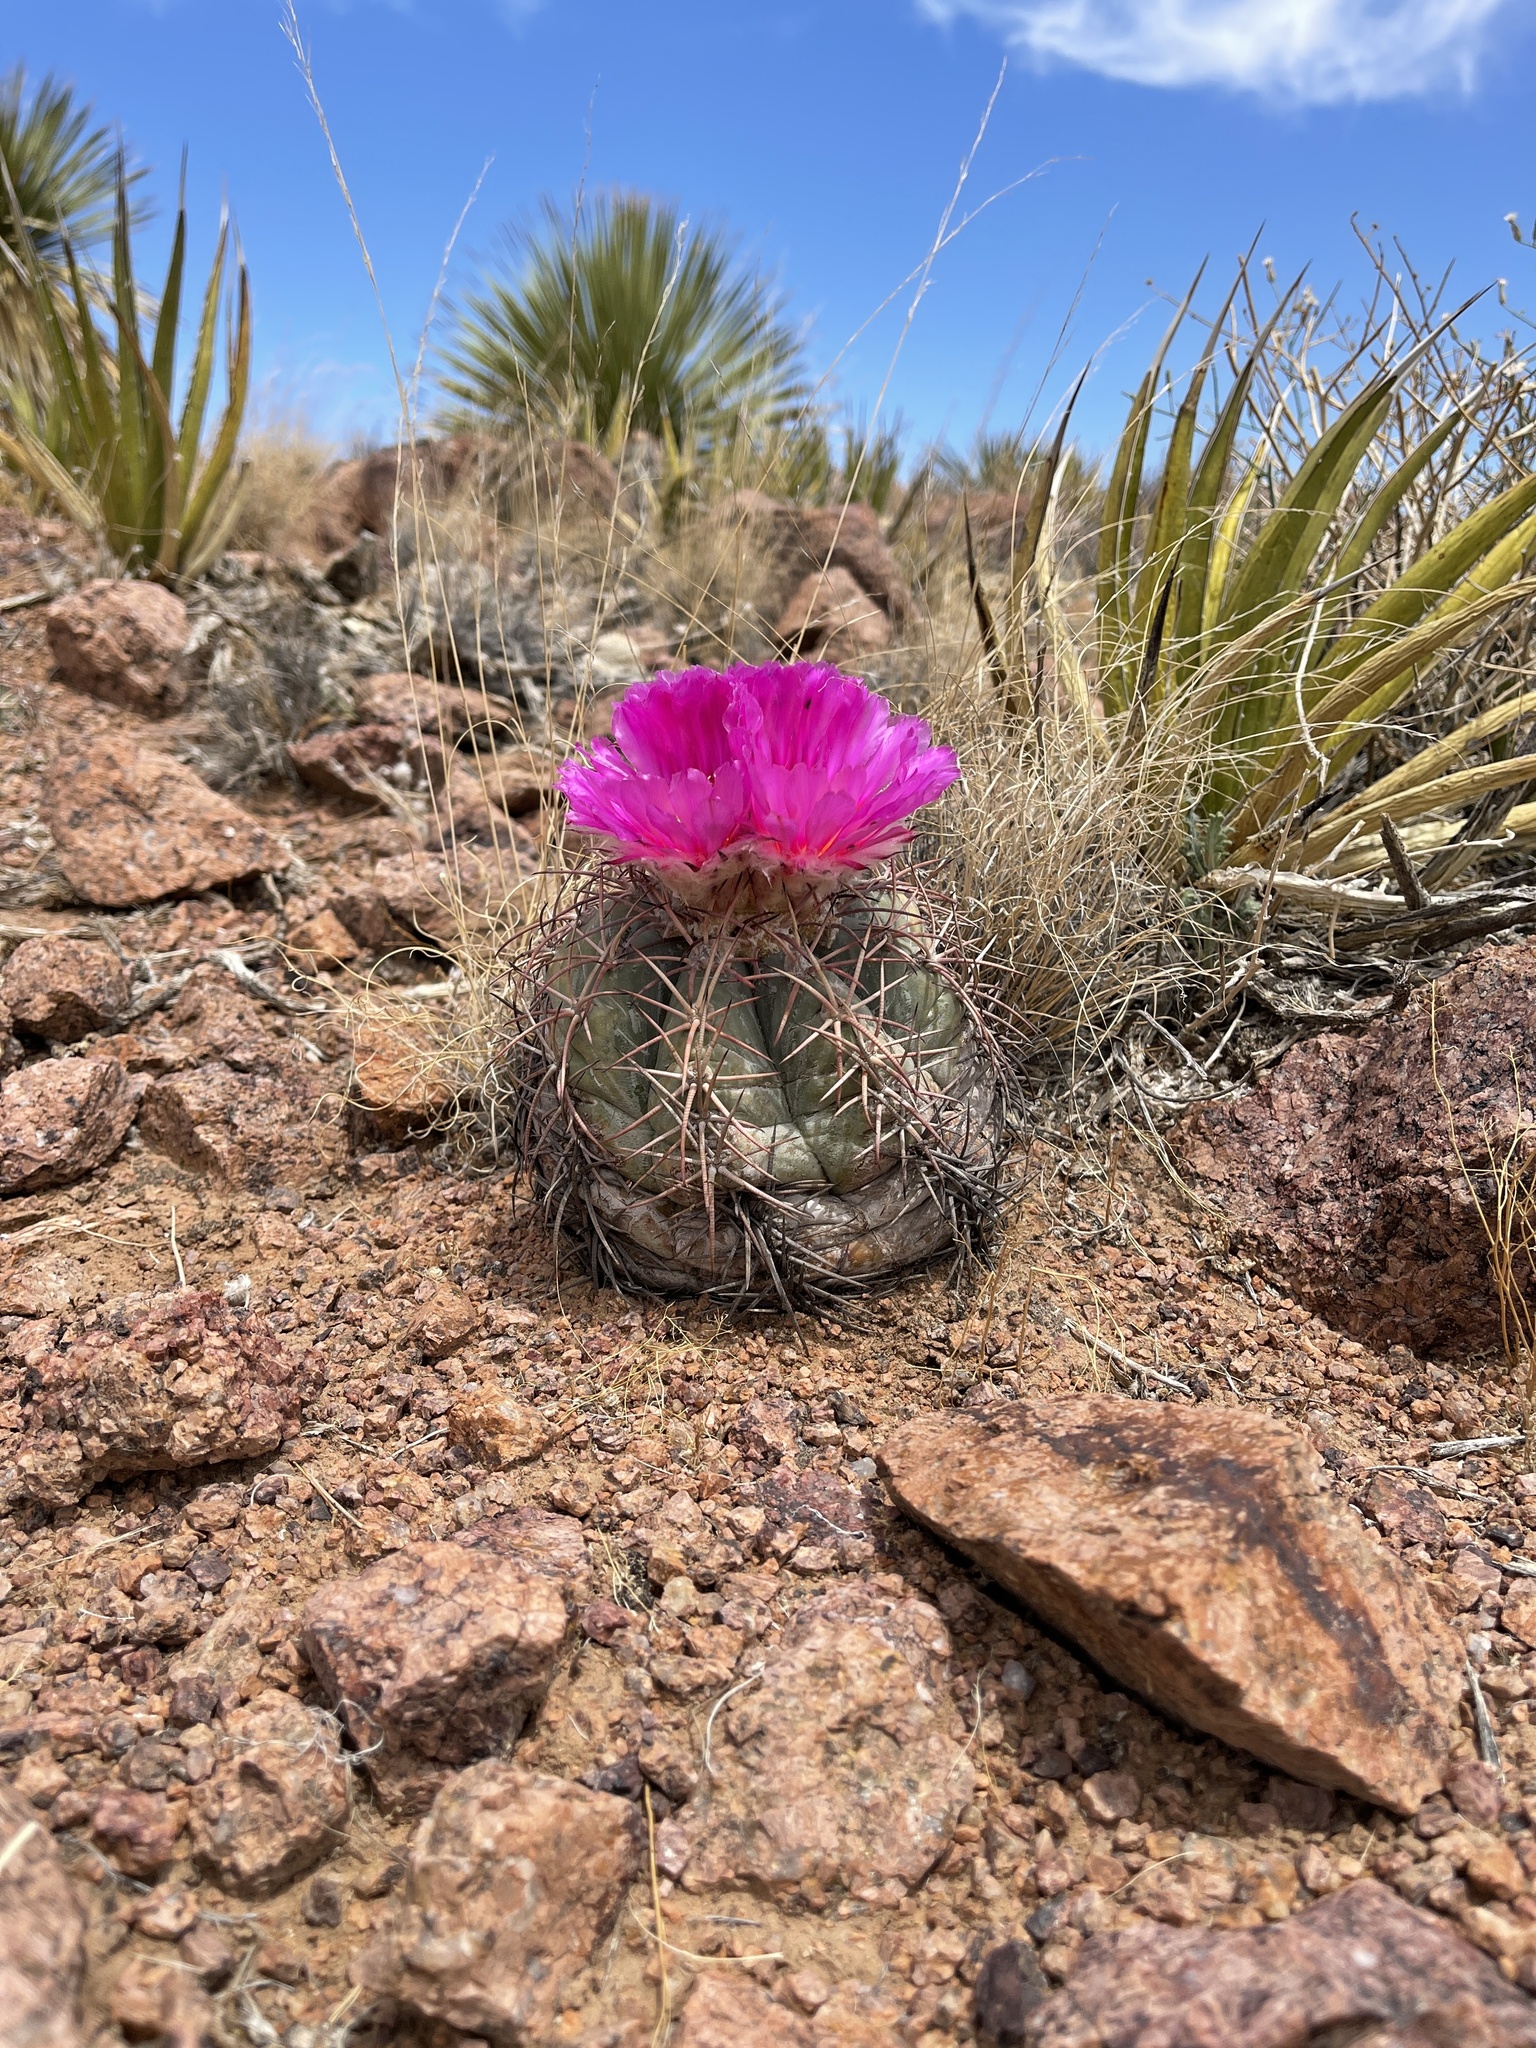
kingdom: Plantae
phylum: Tracheophyta
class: Magnoliopsida
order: Caryophyllales
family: Cactaceae
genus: Echinocactus
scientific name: Echinocactus horizonthalonius
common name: Devilshead
